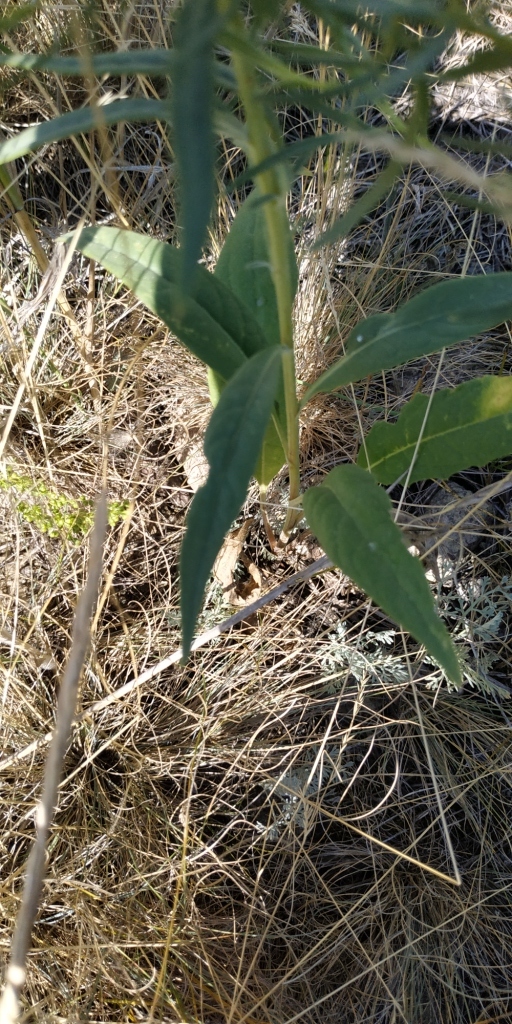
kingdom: Plantae
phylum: Tracheophyta
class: Magnoliopsida
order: Asterales
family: Asteraceae
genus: Saussurea
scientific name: Saussurea amara
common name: Alberta sawwort
